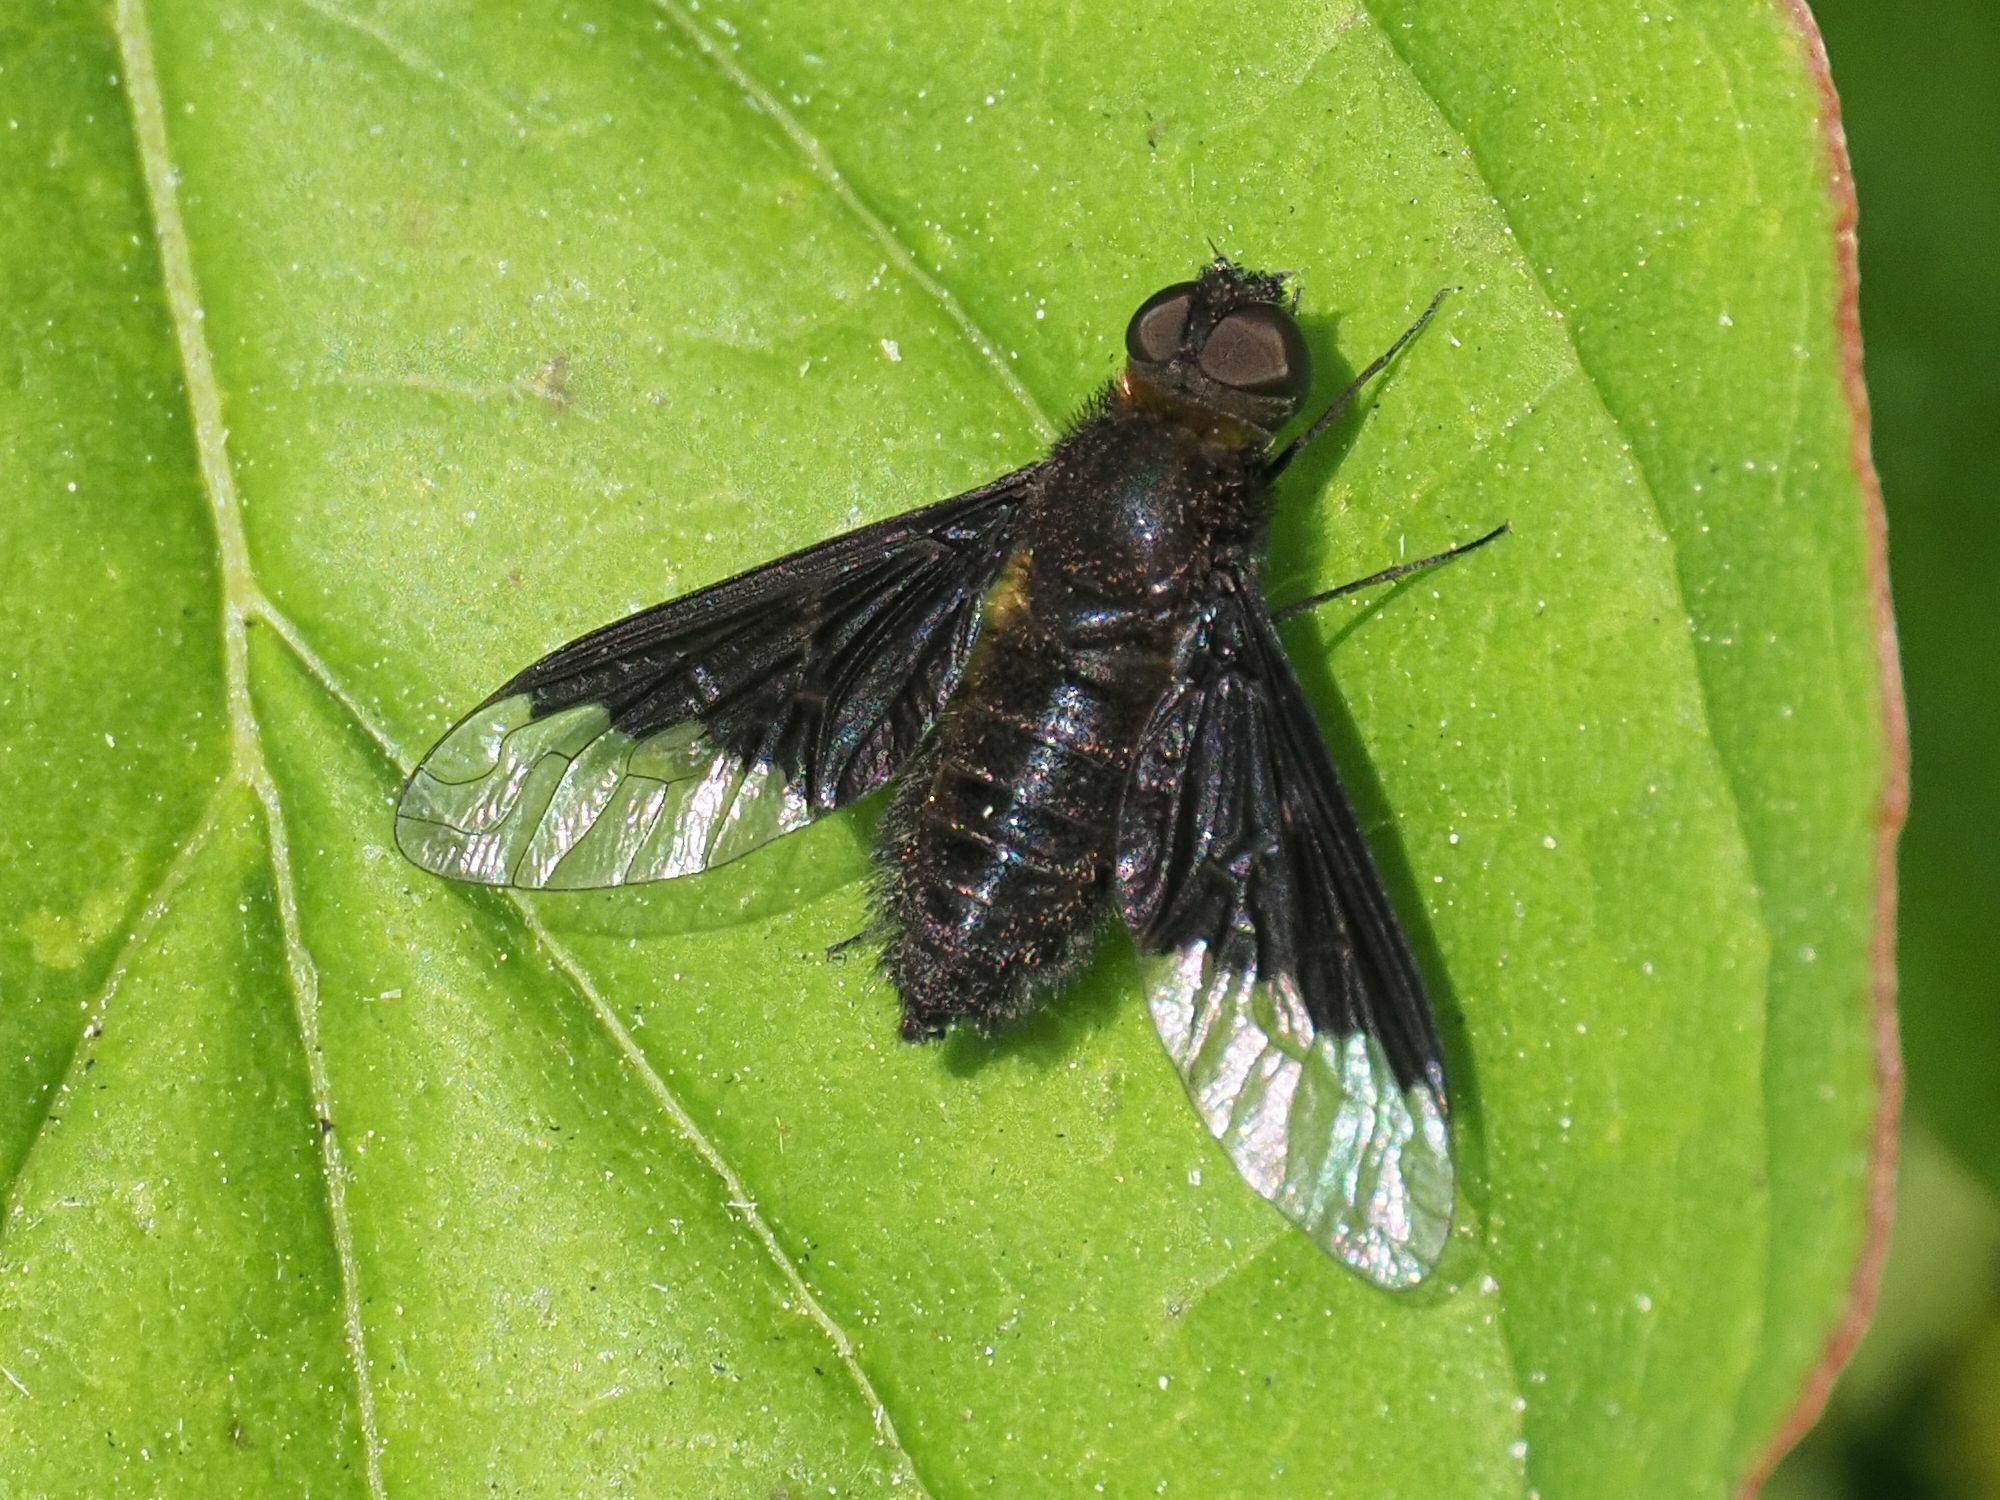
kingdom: Animalia
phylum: Arthropoda
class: Insecta
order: Diptera
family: Bombyliidae
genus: Hemipenthes
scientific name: Hemipenthes morio
